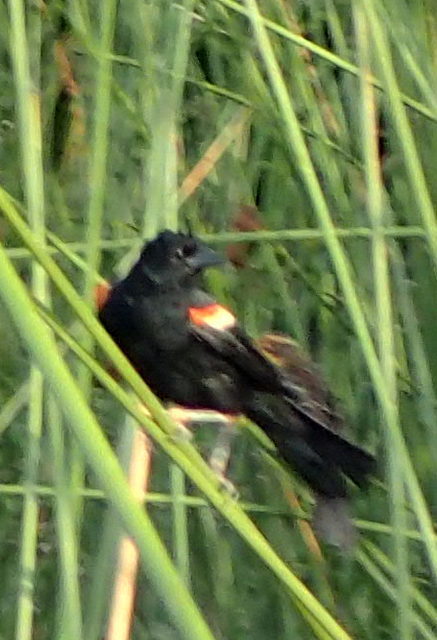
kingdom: Animalia
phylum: Chordata
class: Aves
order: Passeriformes
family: Icteridae
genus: Agelaius
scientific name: Agelaius phoeniceus
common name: Red-winged blackbird
